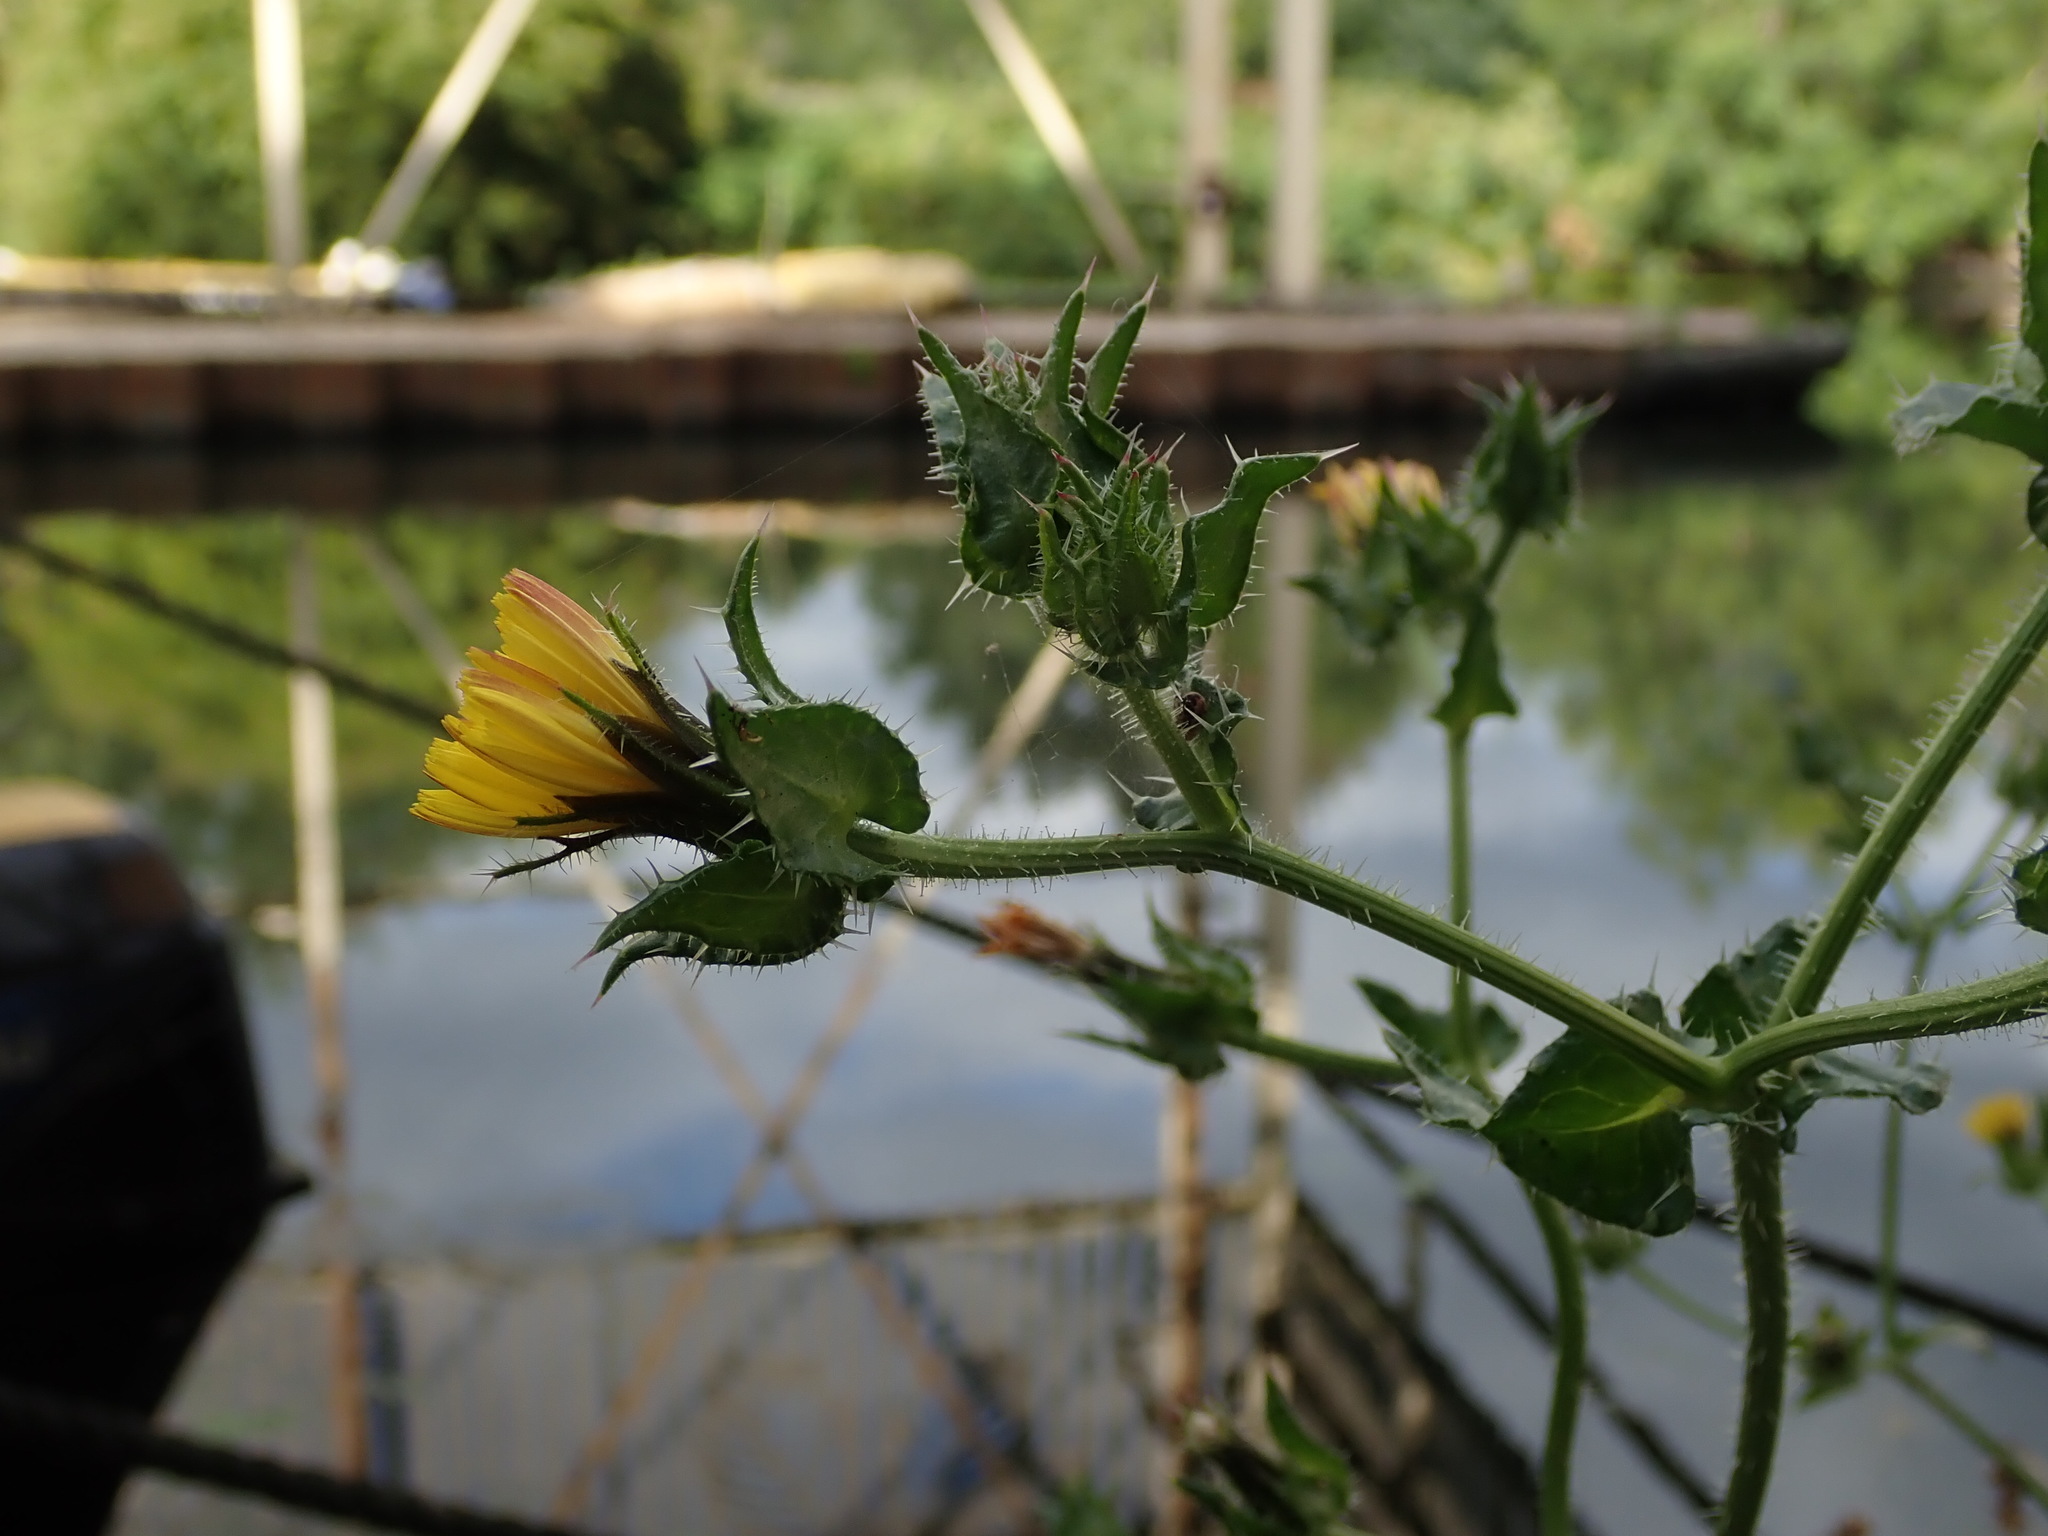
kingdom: Plantae
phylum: Tracheophyta
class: Magnoliopsida
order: Asterales
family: Asteraceae
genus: Helminthotheca
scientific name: Helminthotheca echioides
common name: Ox-tongue
